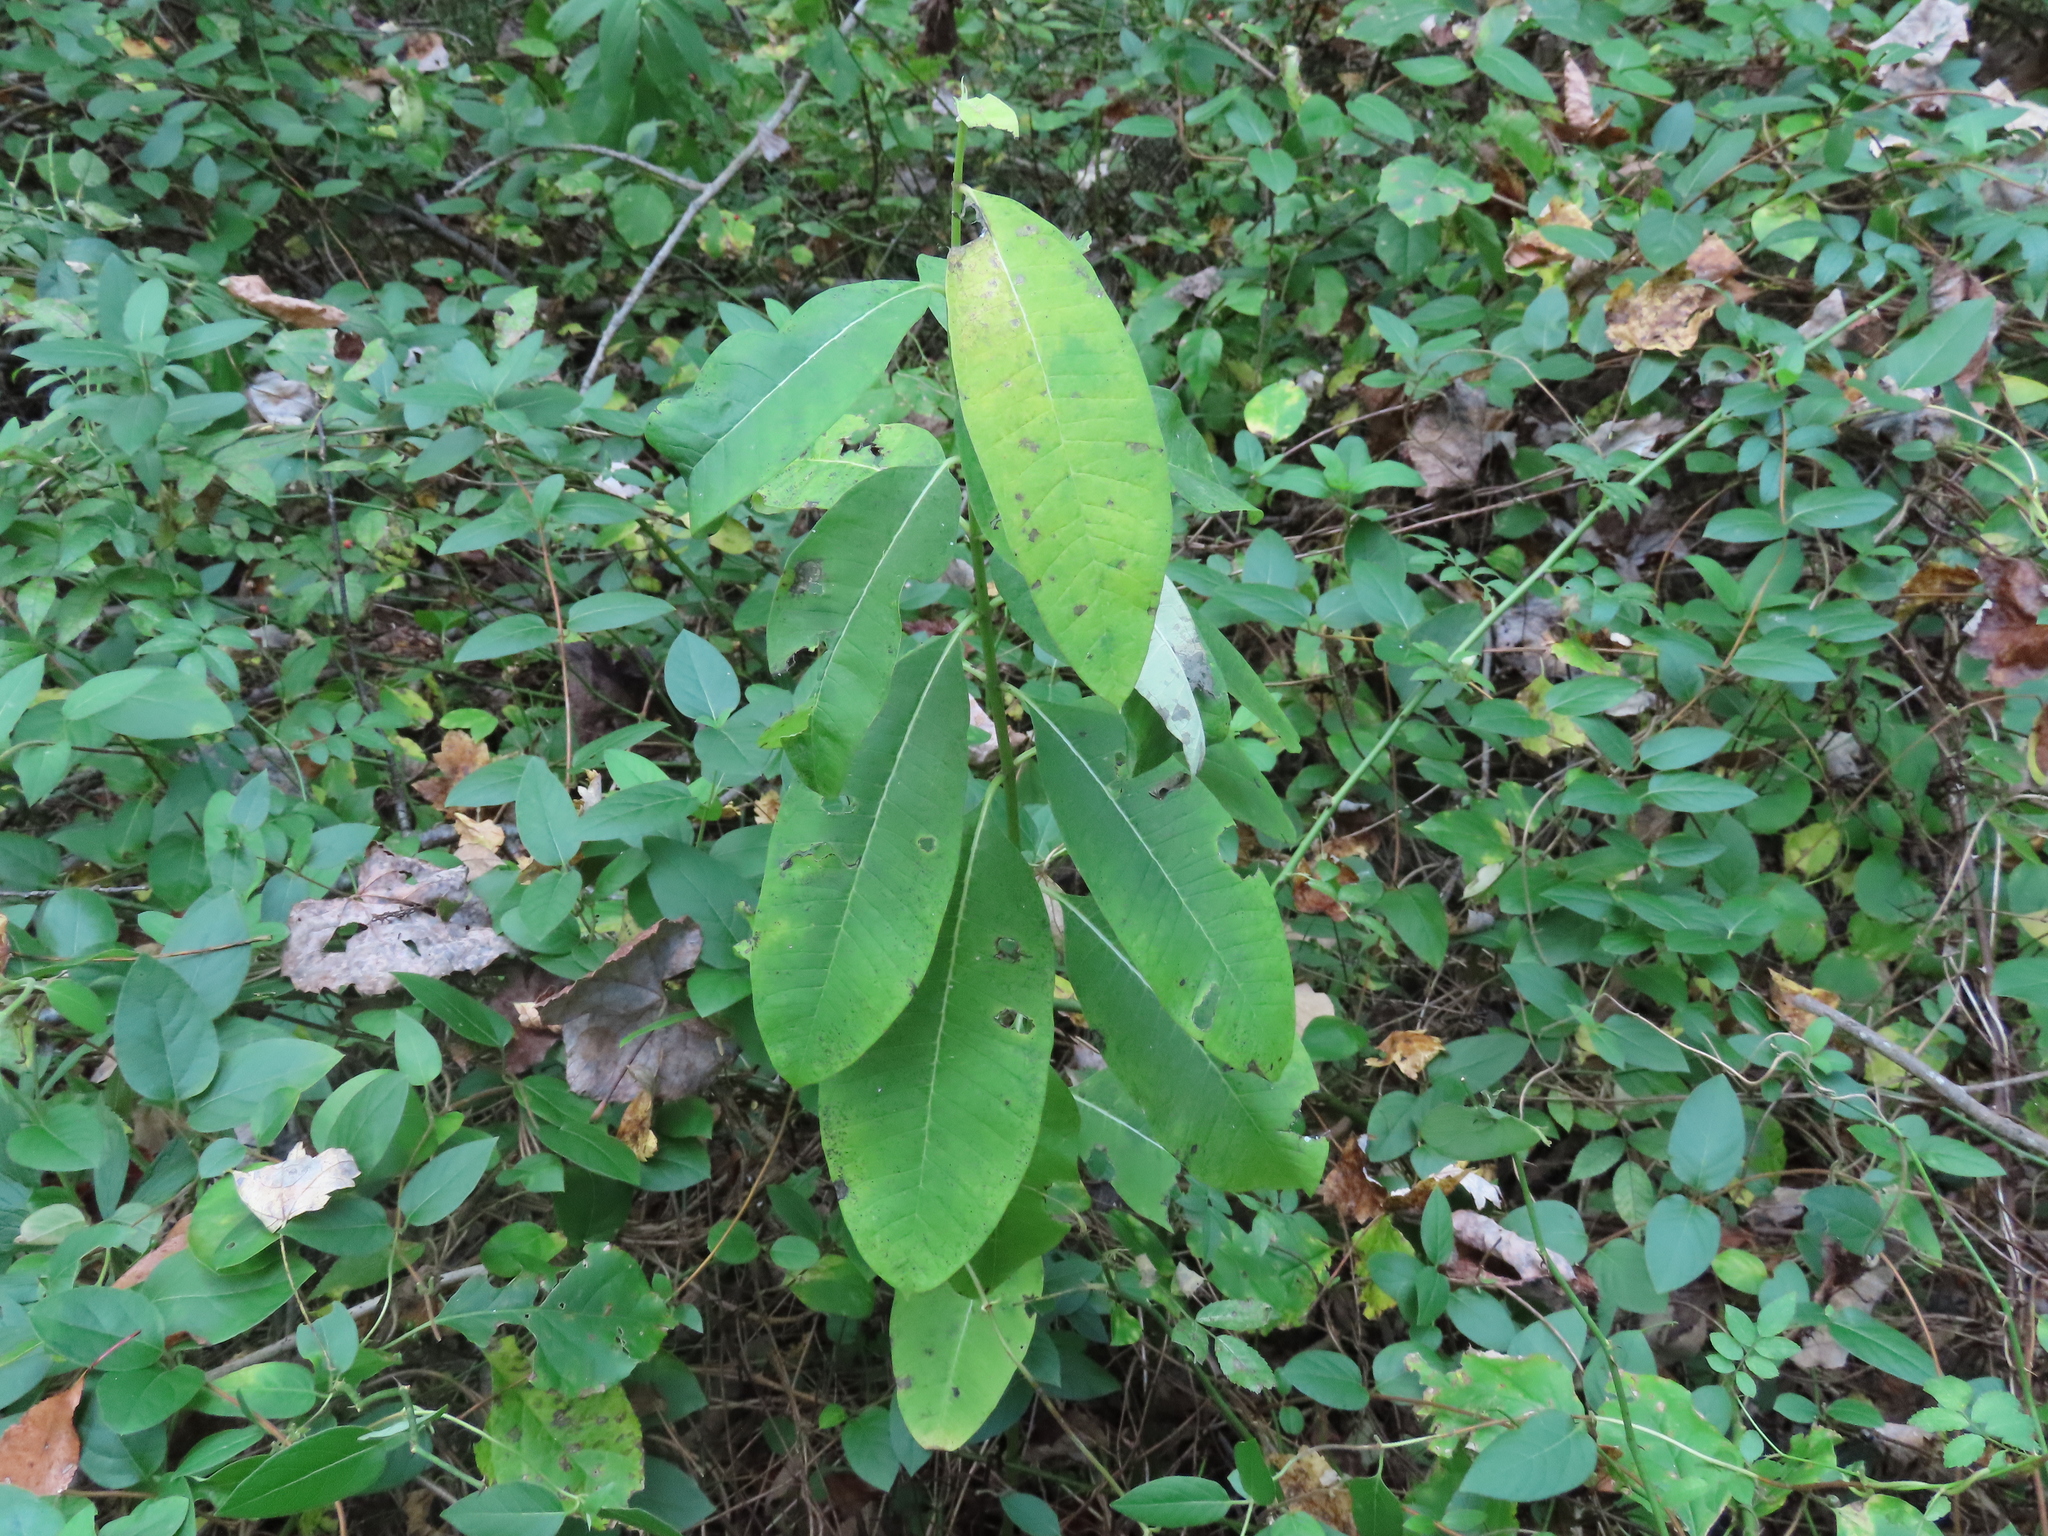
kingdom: Plantae
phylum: Tracheophyta
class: Magnoliopsida
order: Gentianales
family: Apocynaceae
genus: Asclepias
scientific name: Asclepias syriaca
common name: Common milkweed
